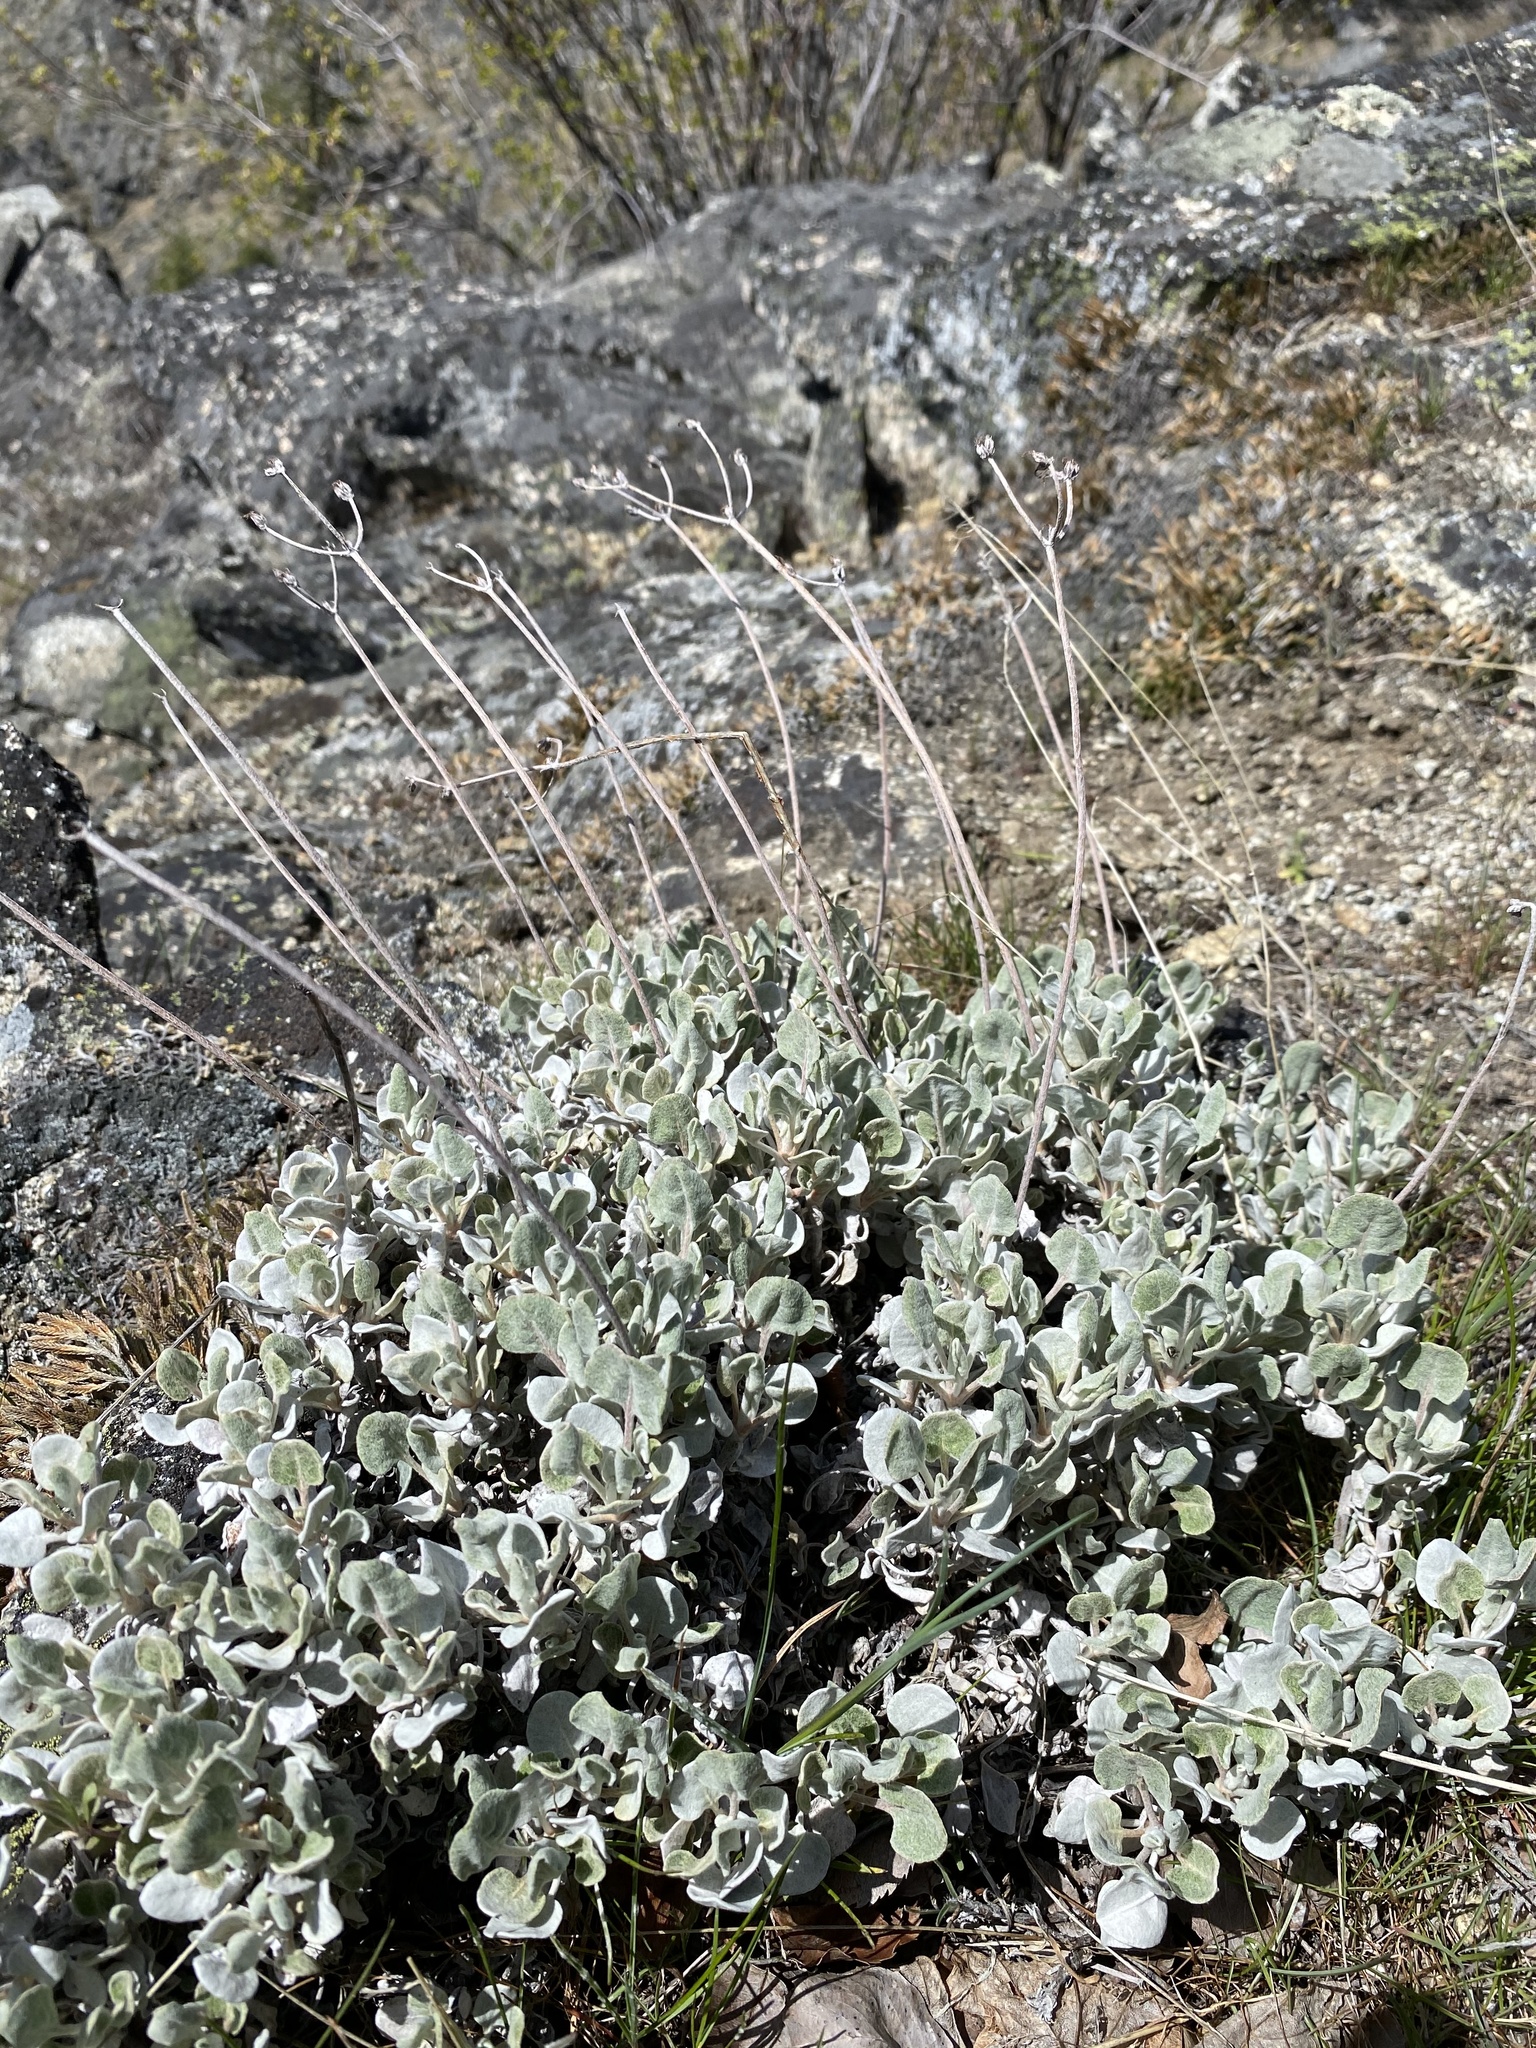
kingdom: Plantae
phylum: Tracheophyta
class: Magnoliopsida
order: Caryophyllales
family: Polygonaceae
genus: Eriogonum
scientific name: Eriogonum niveum
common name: Snow wild buckwheat
